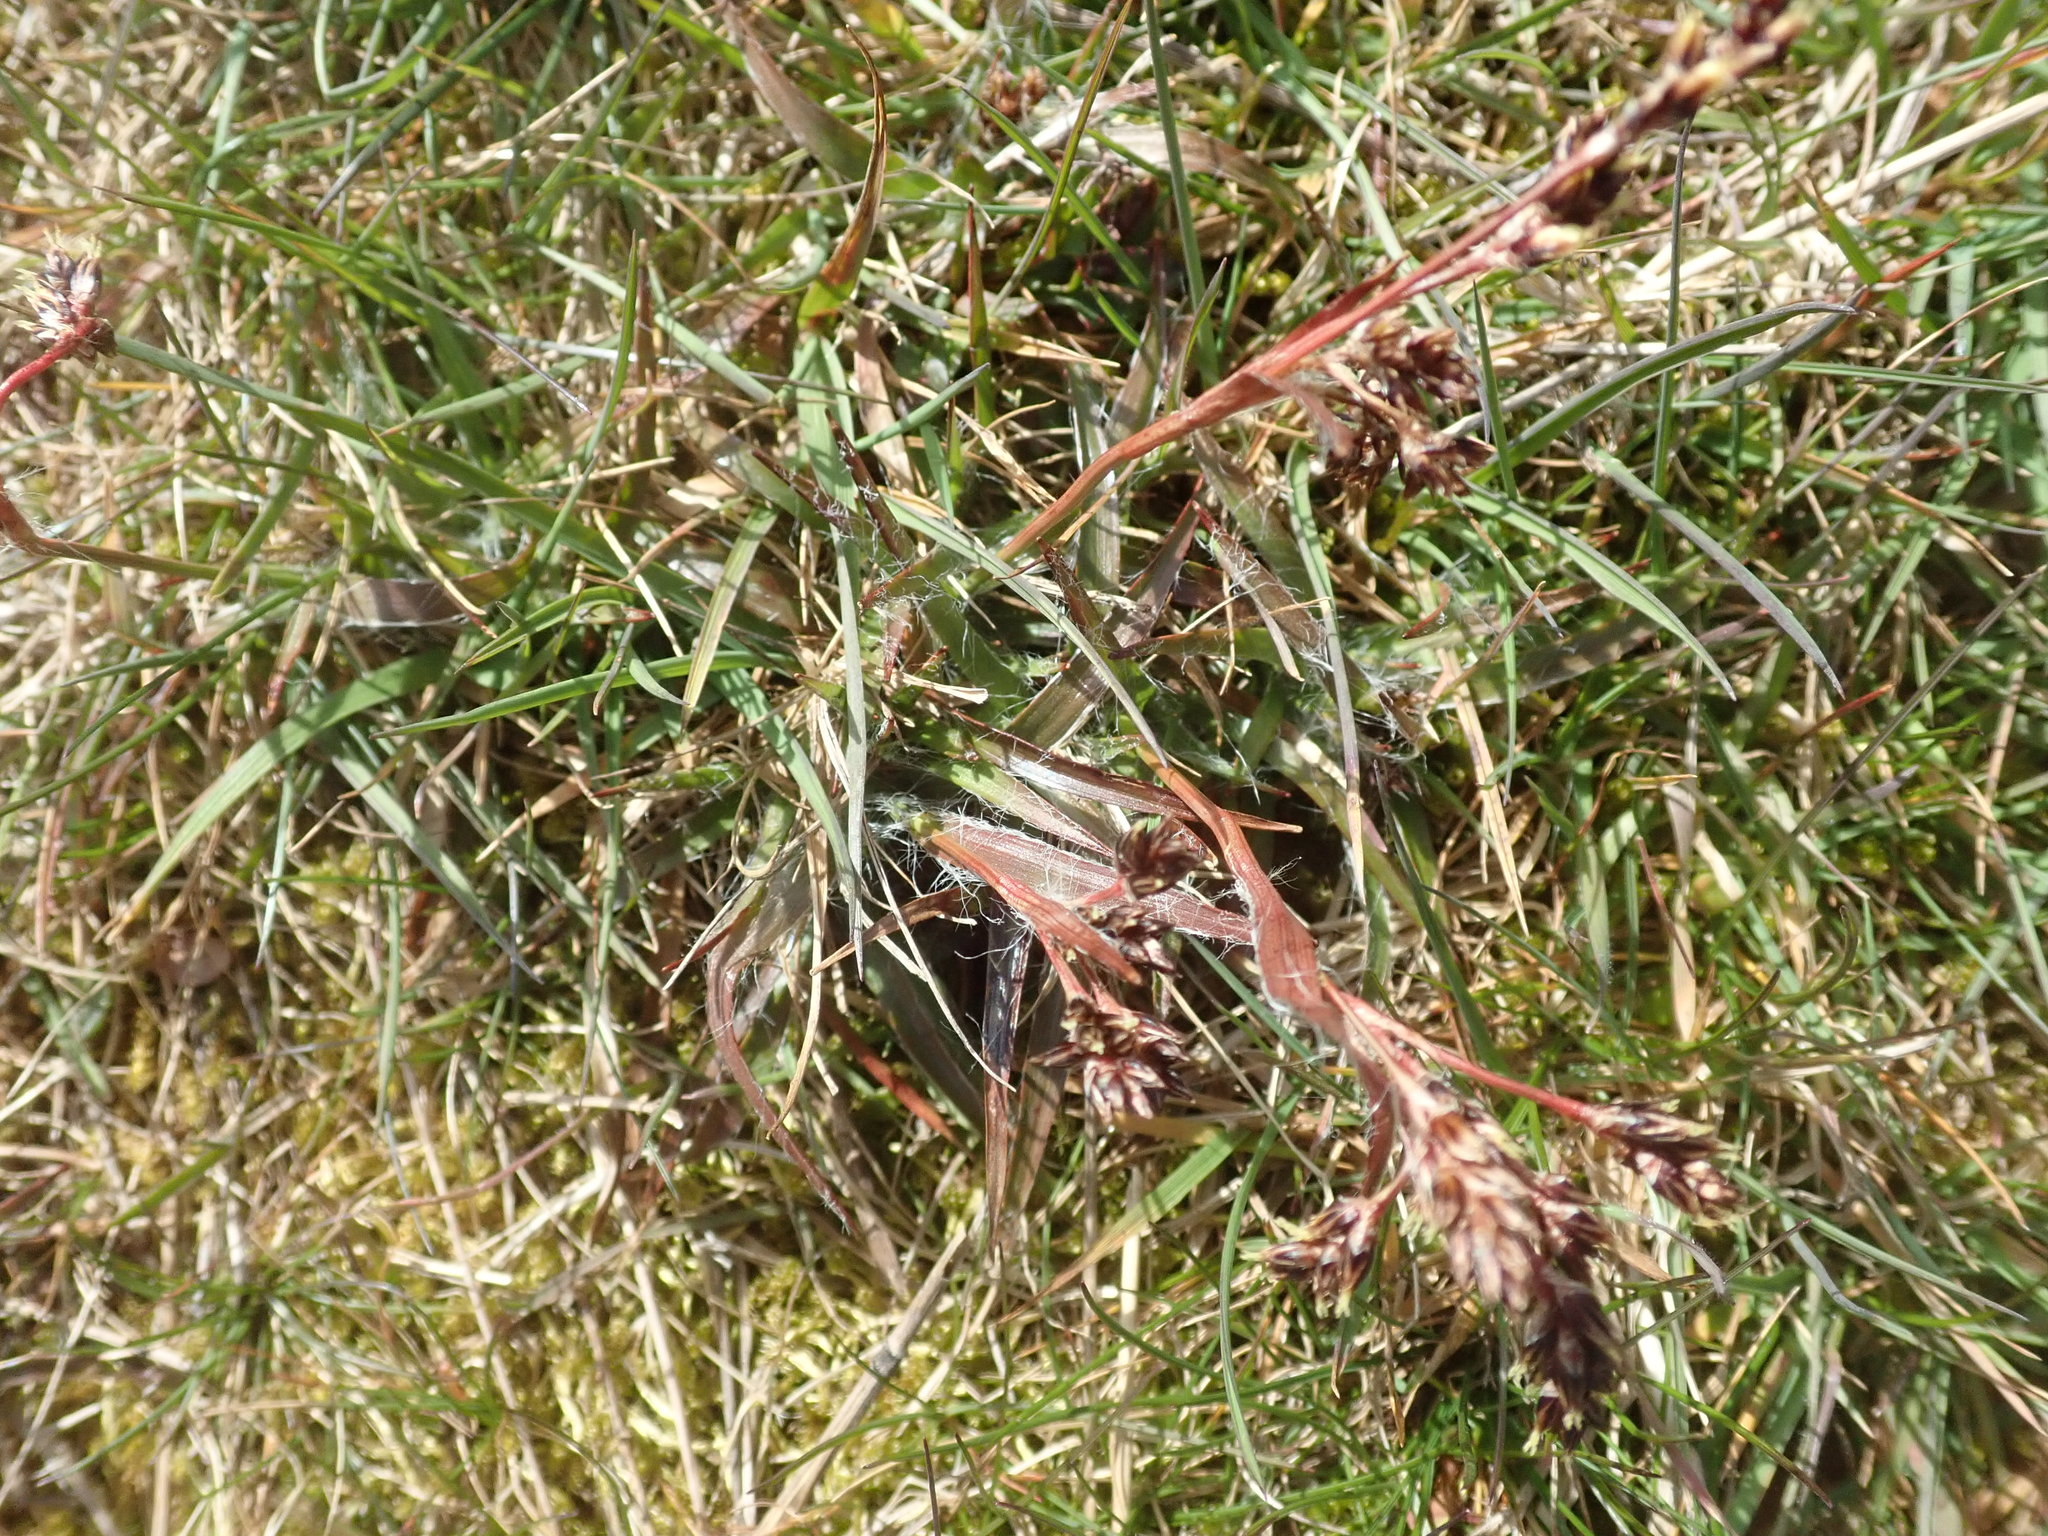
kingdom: Plantae
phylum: Tracheophyta
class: Liliopsida
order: Poales
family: Juncaceae
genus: Luzula
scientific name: Luzula campestris
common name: Field wood-rush
